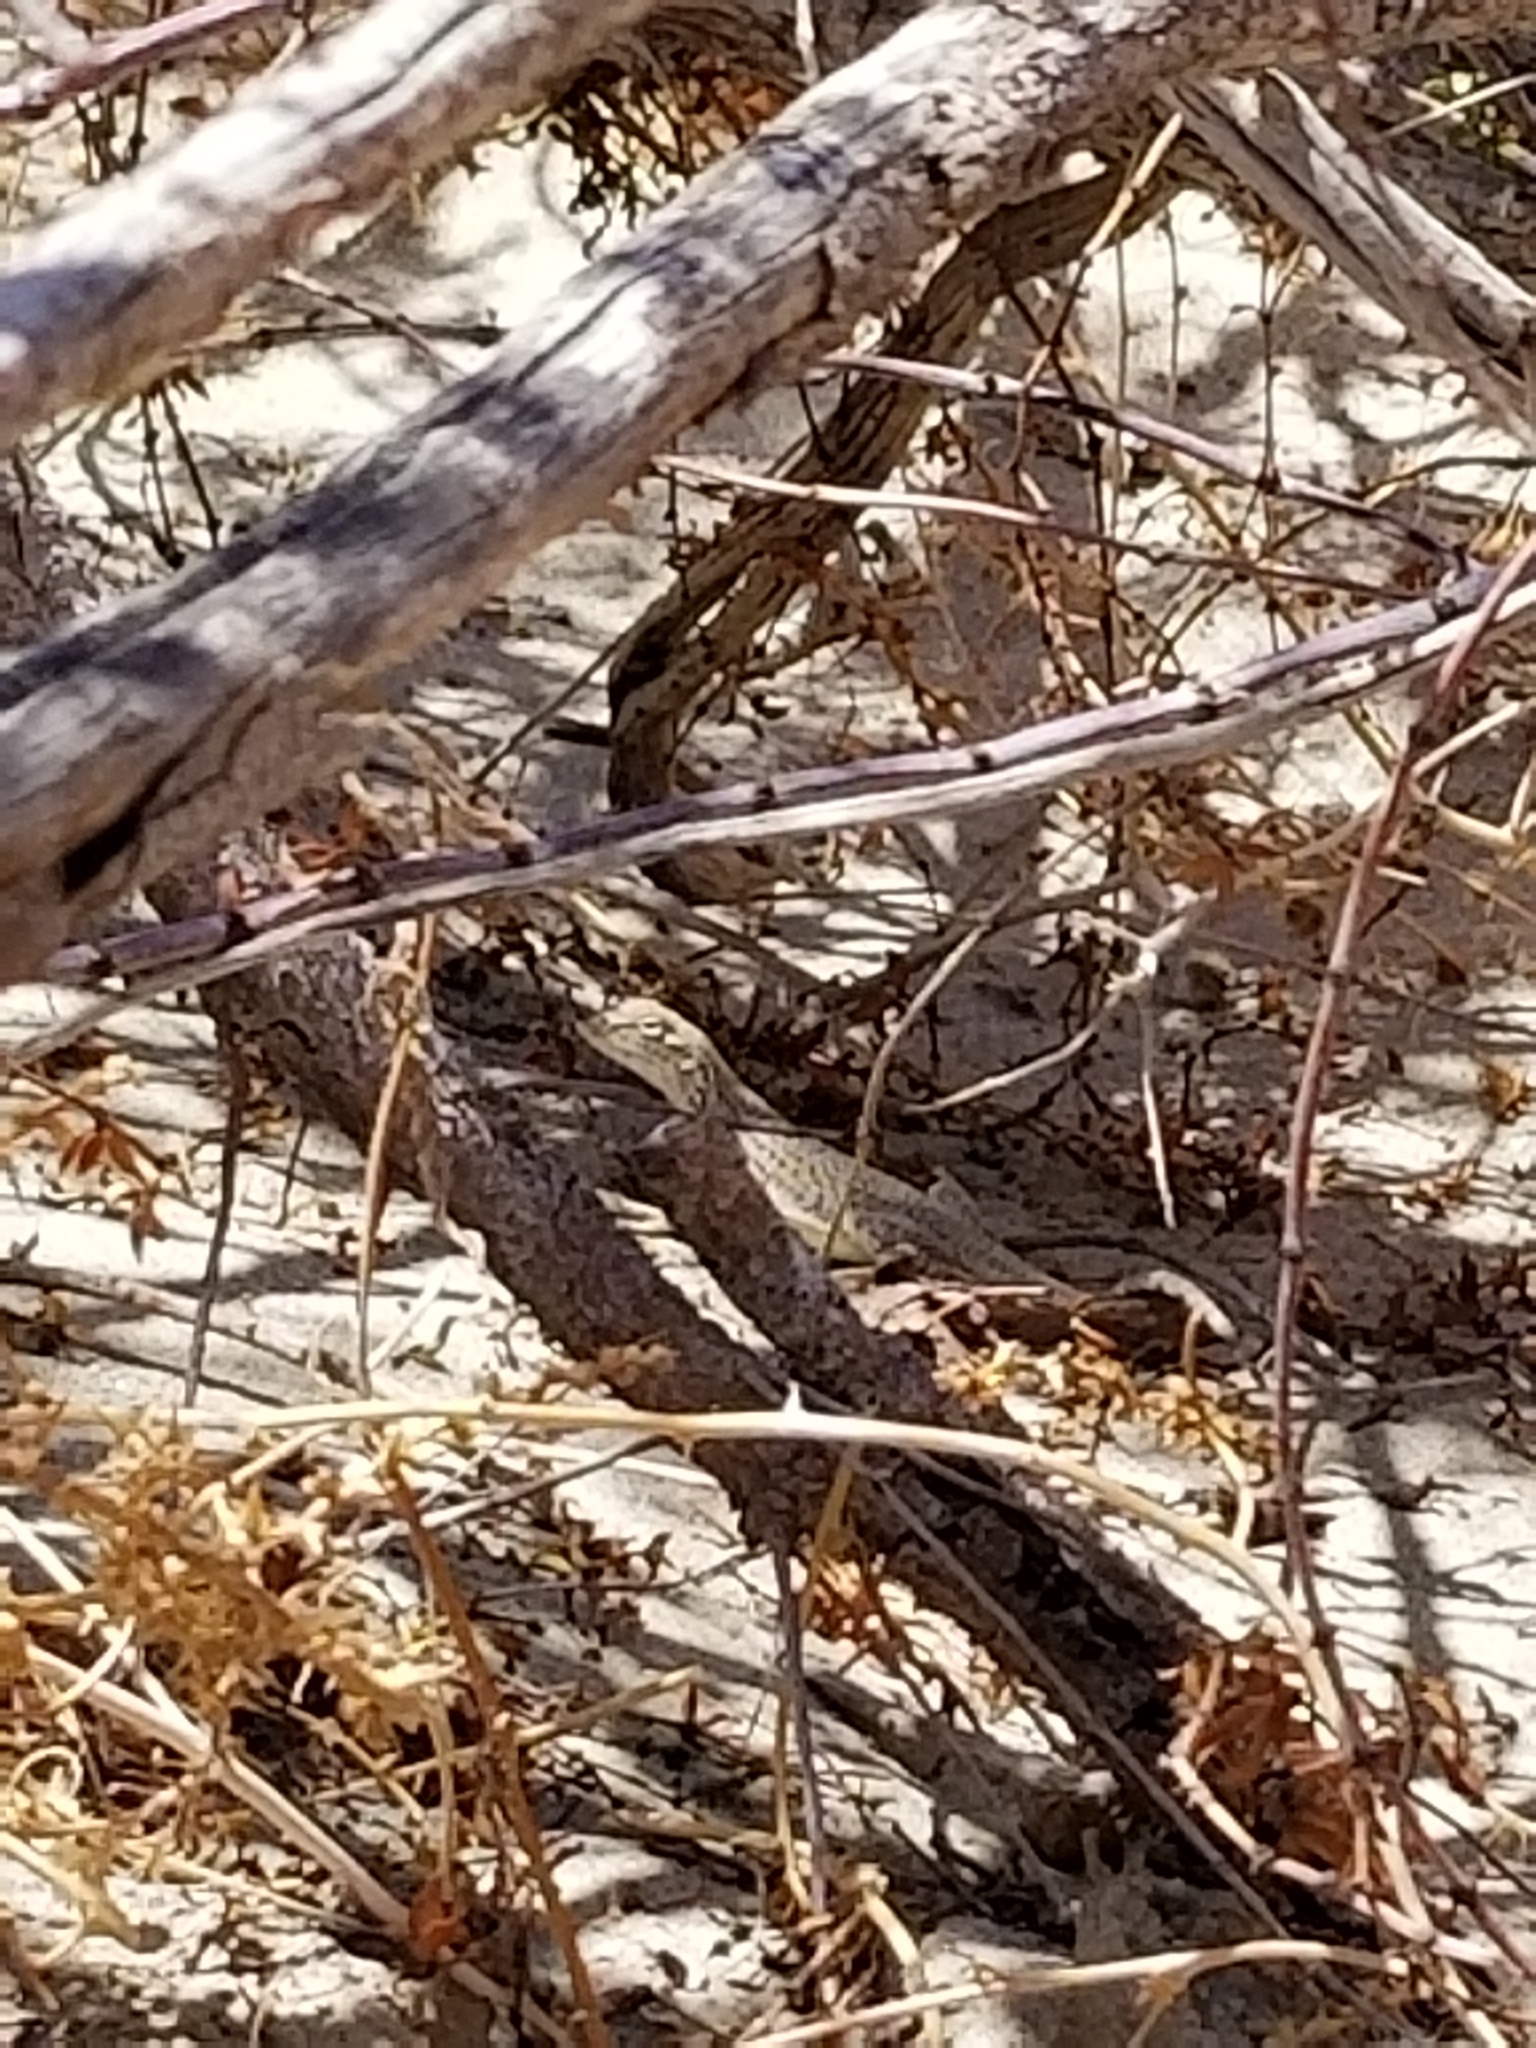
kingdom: Animalia
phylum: Chordata
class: Squamata
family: Phrynosomatidae
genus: Uma
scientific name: Uma inornata
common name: Coachella valley fringe-toed lizard
